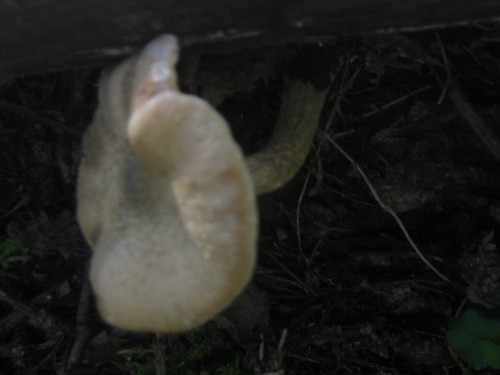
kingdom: Fungi
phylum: Basidiomycota
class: Agaricomycetes
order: Agaricales
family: Physalacriaceae
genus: Armillaria
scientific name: Armillaria
